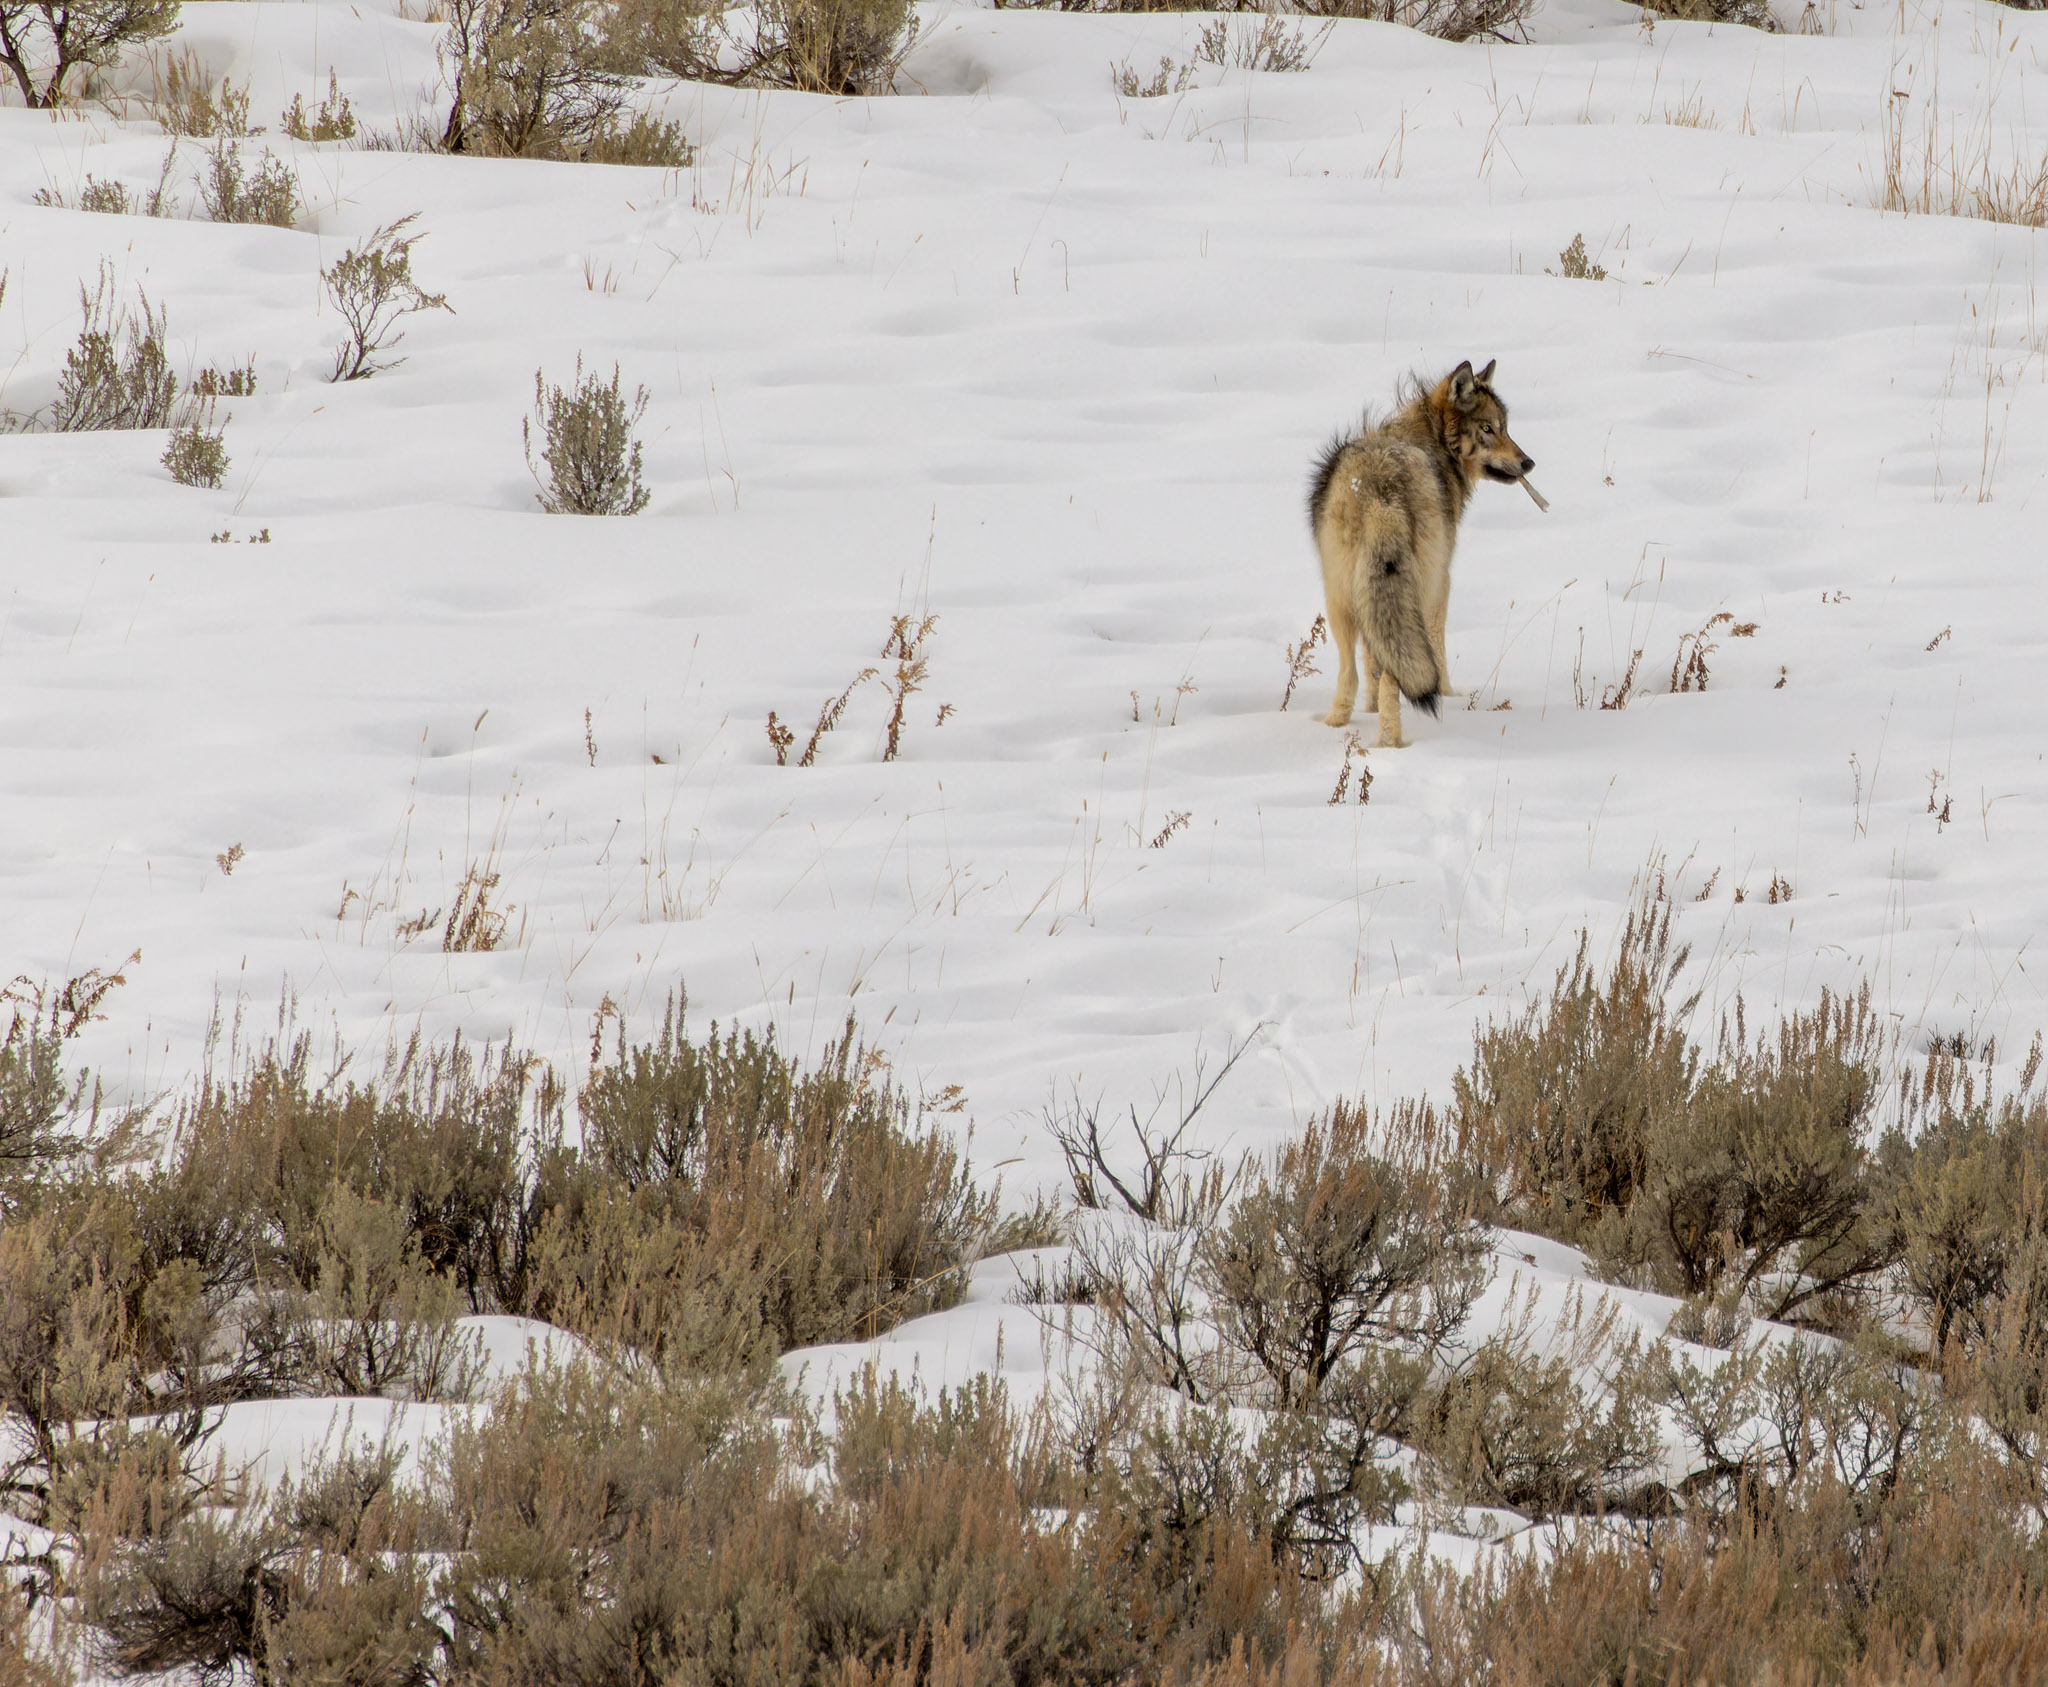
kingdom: Animalia
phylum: Chordata
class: Mammalia
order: Carnivora
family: Canidae
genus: Canis
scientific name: Canis lupus
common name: Gray wolf
